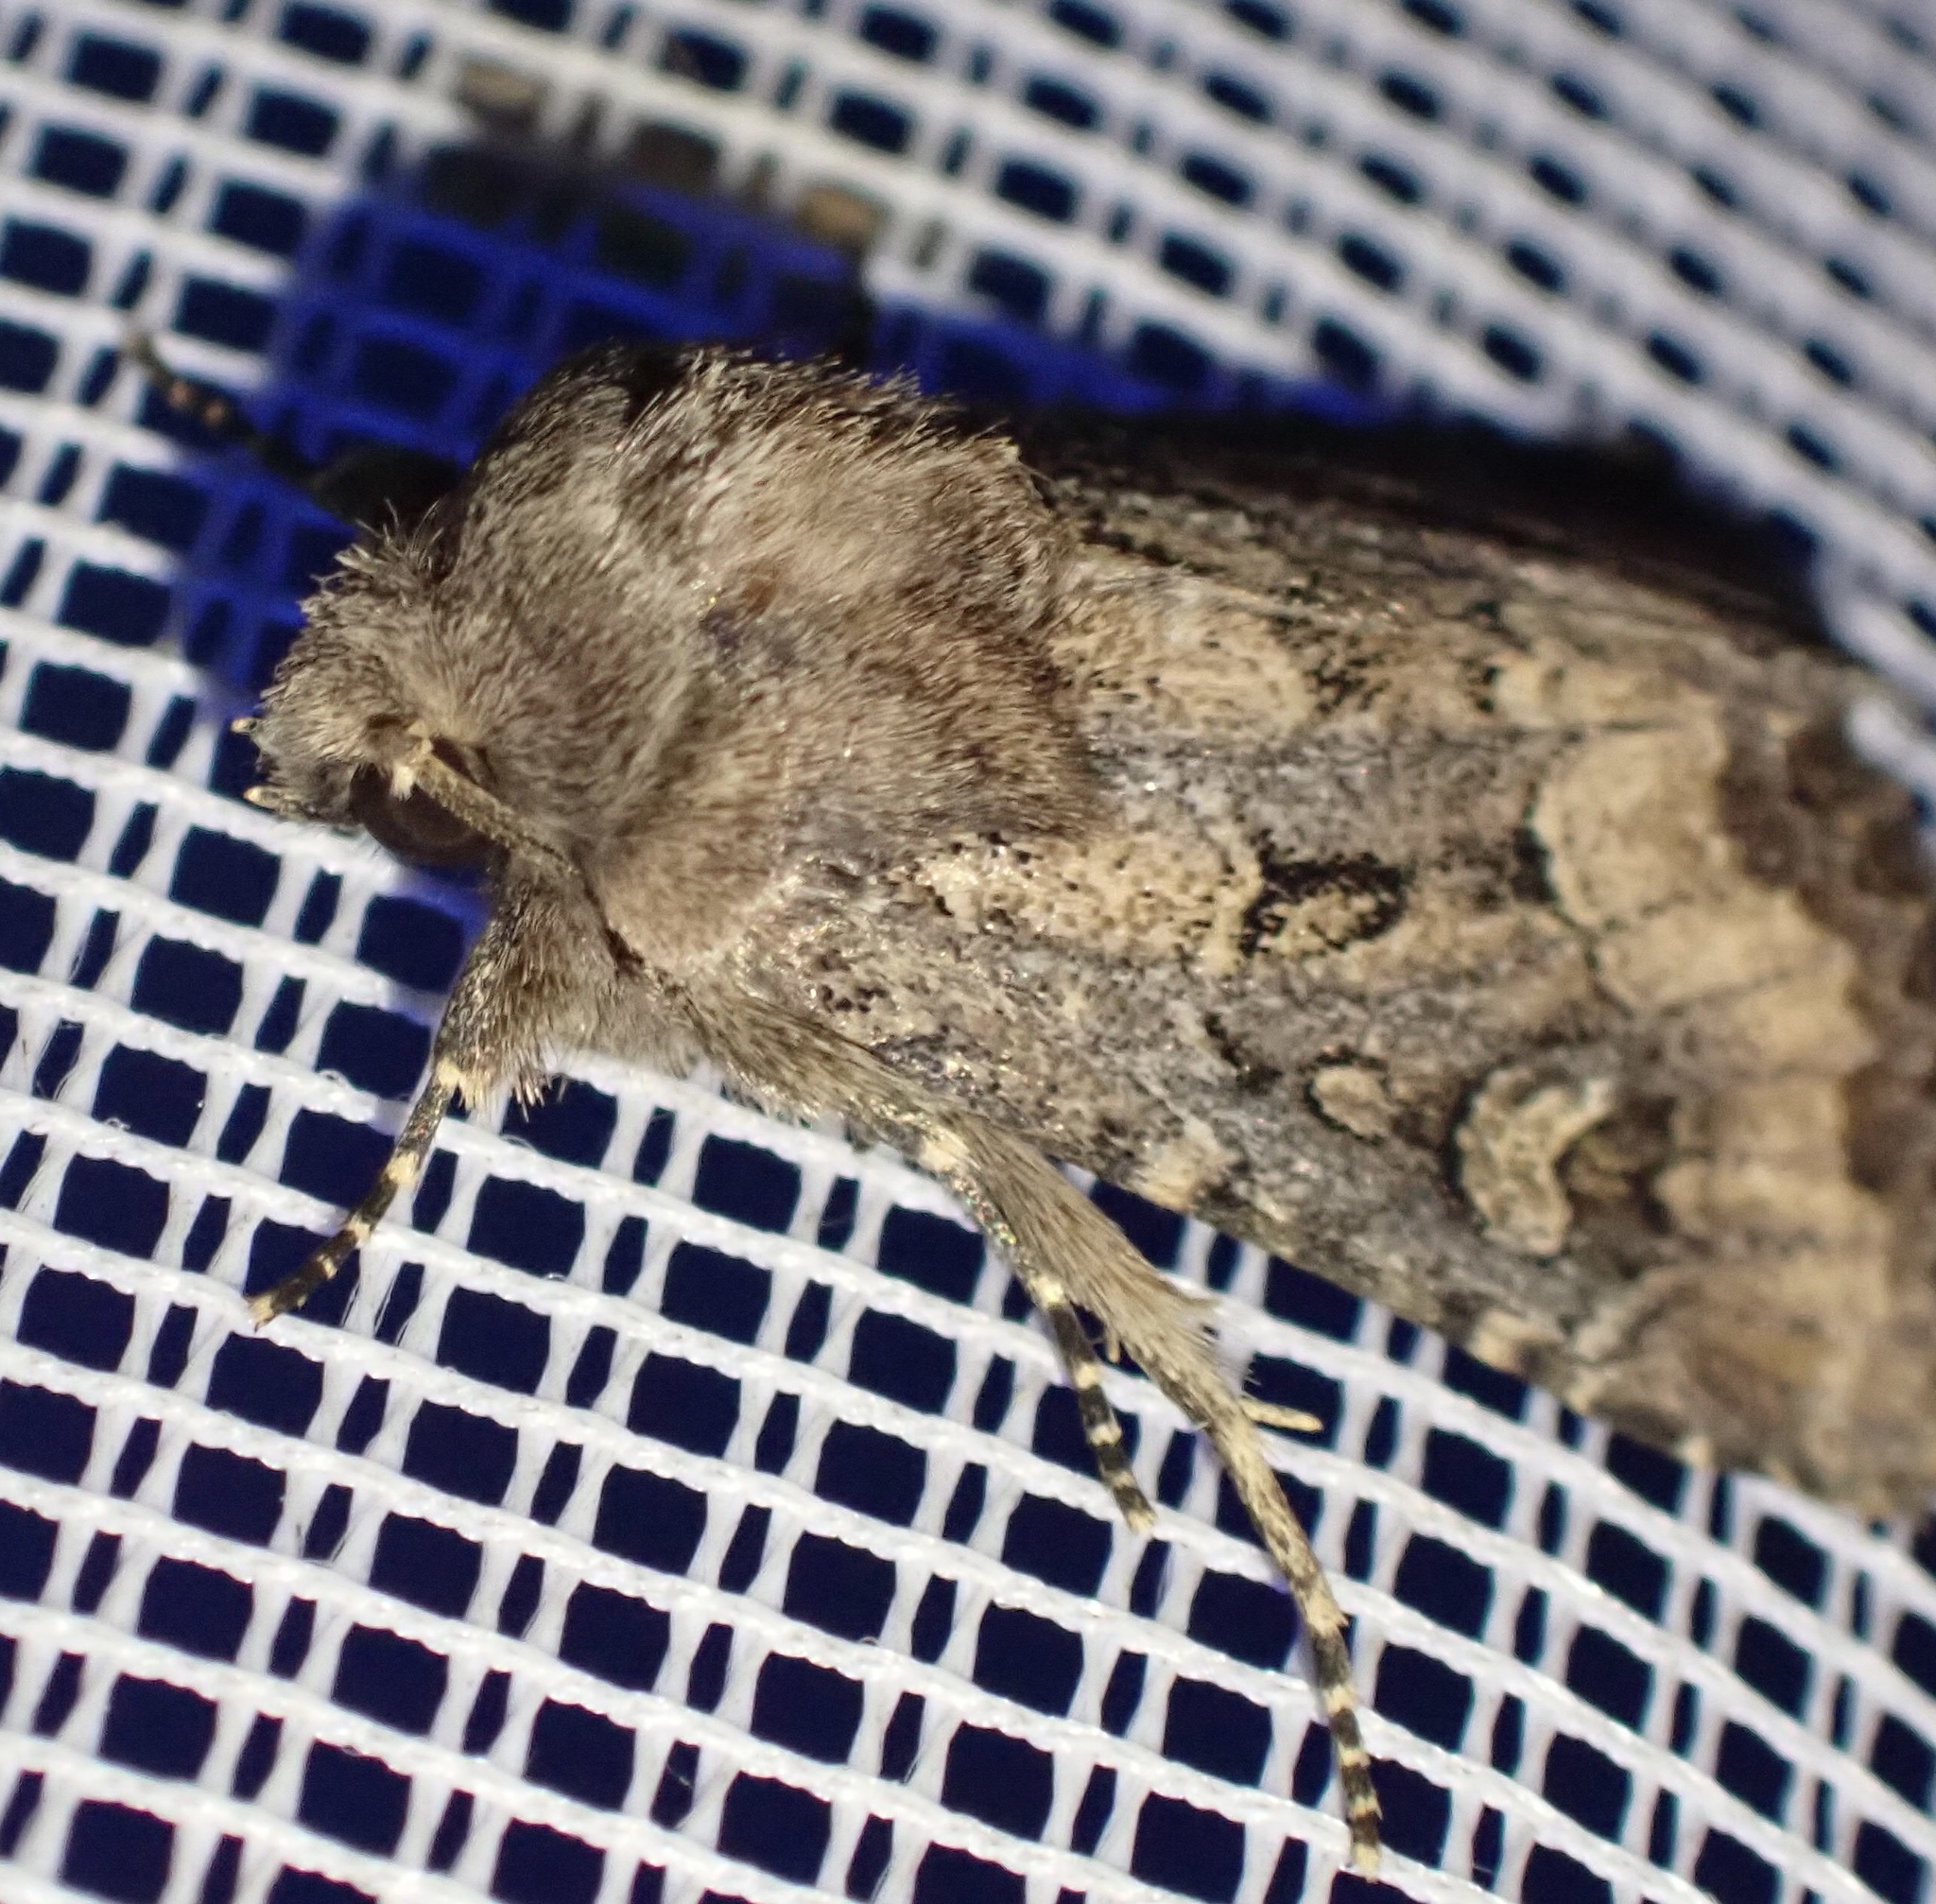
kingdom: Animalia
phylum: Arthropoda
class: Insecta
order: Lepidoptera
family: Noctuidae
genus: Luperina
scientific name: Luperina testacea
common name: Flounced rustic
